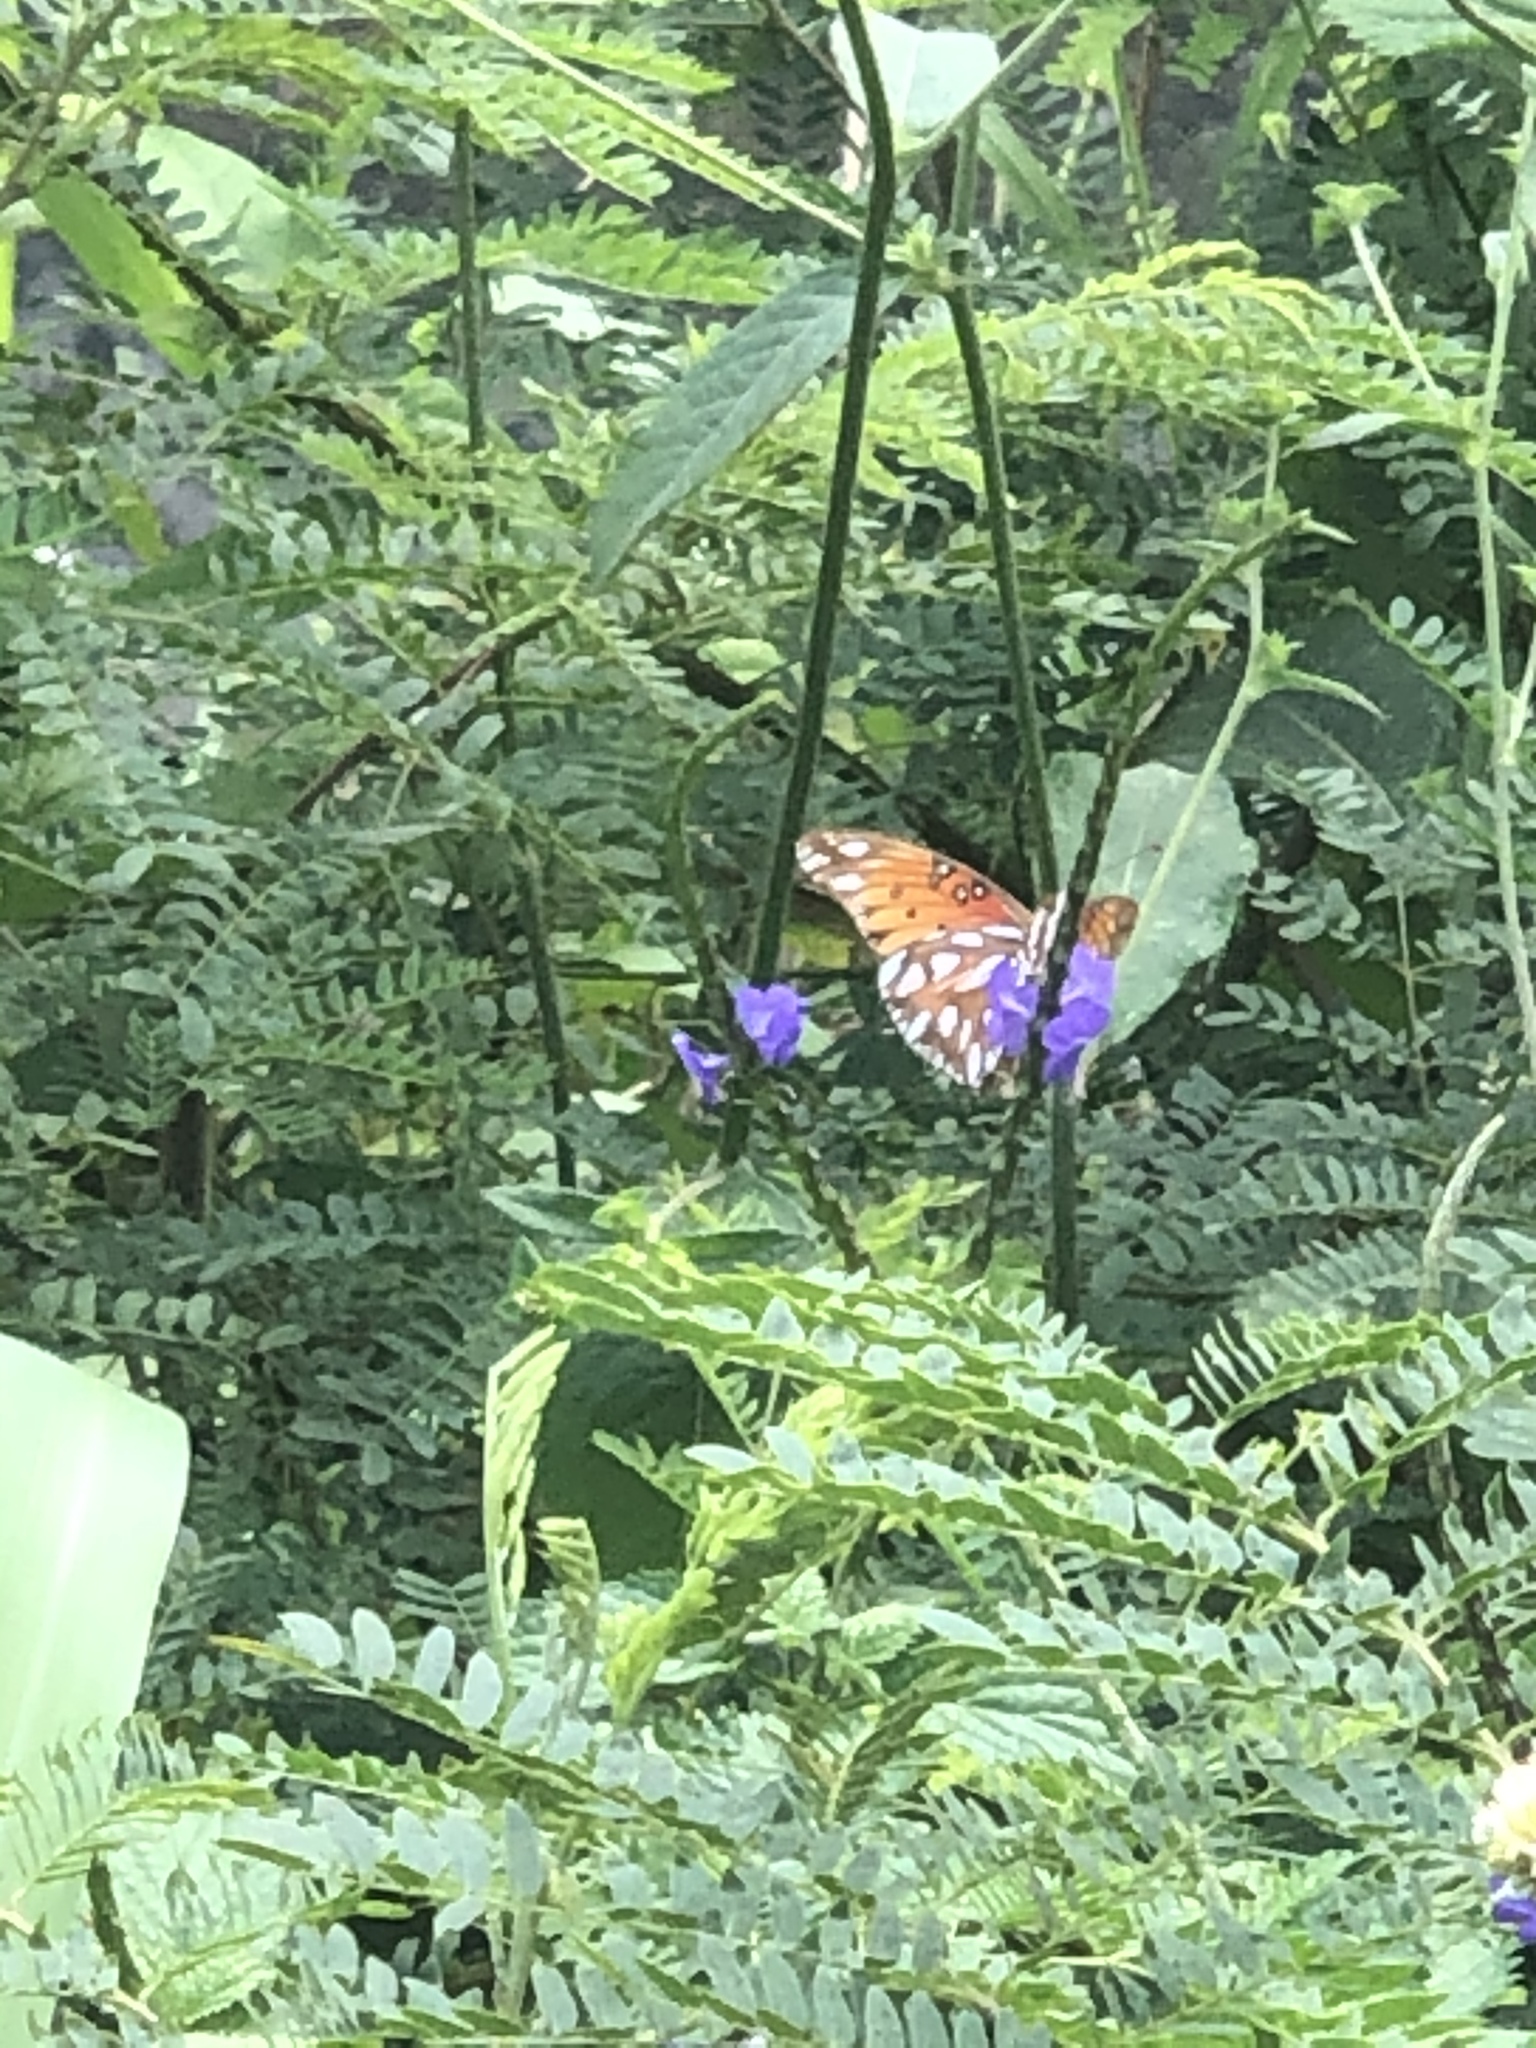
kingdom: Animalia
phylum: Arthropoda
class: Insecta
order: Lepidoptera
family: Nymphalidae
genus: Dione
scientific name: Dione vanillae
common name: Gulf fritillary
